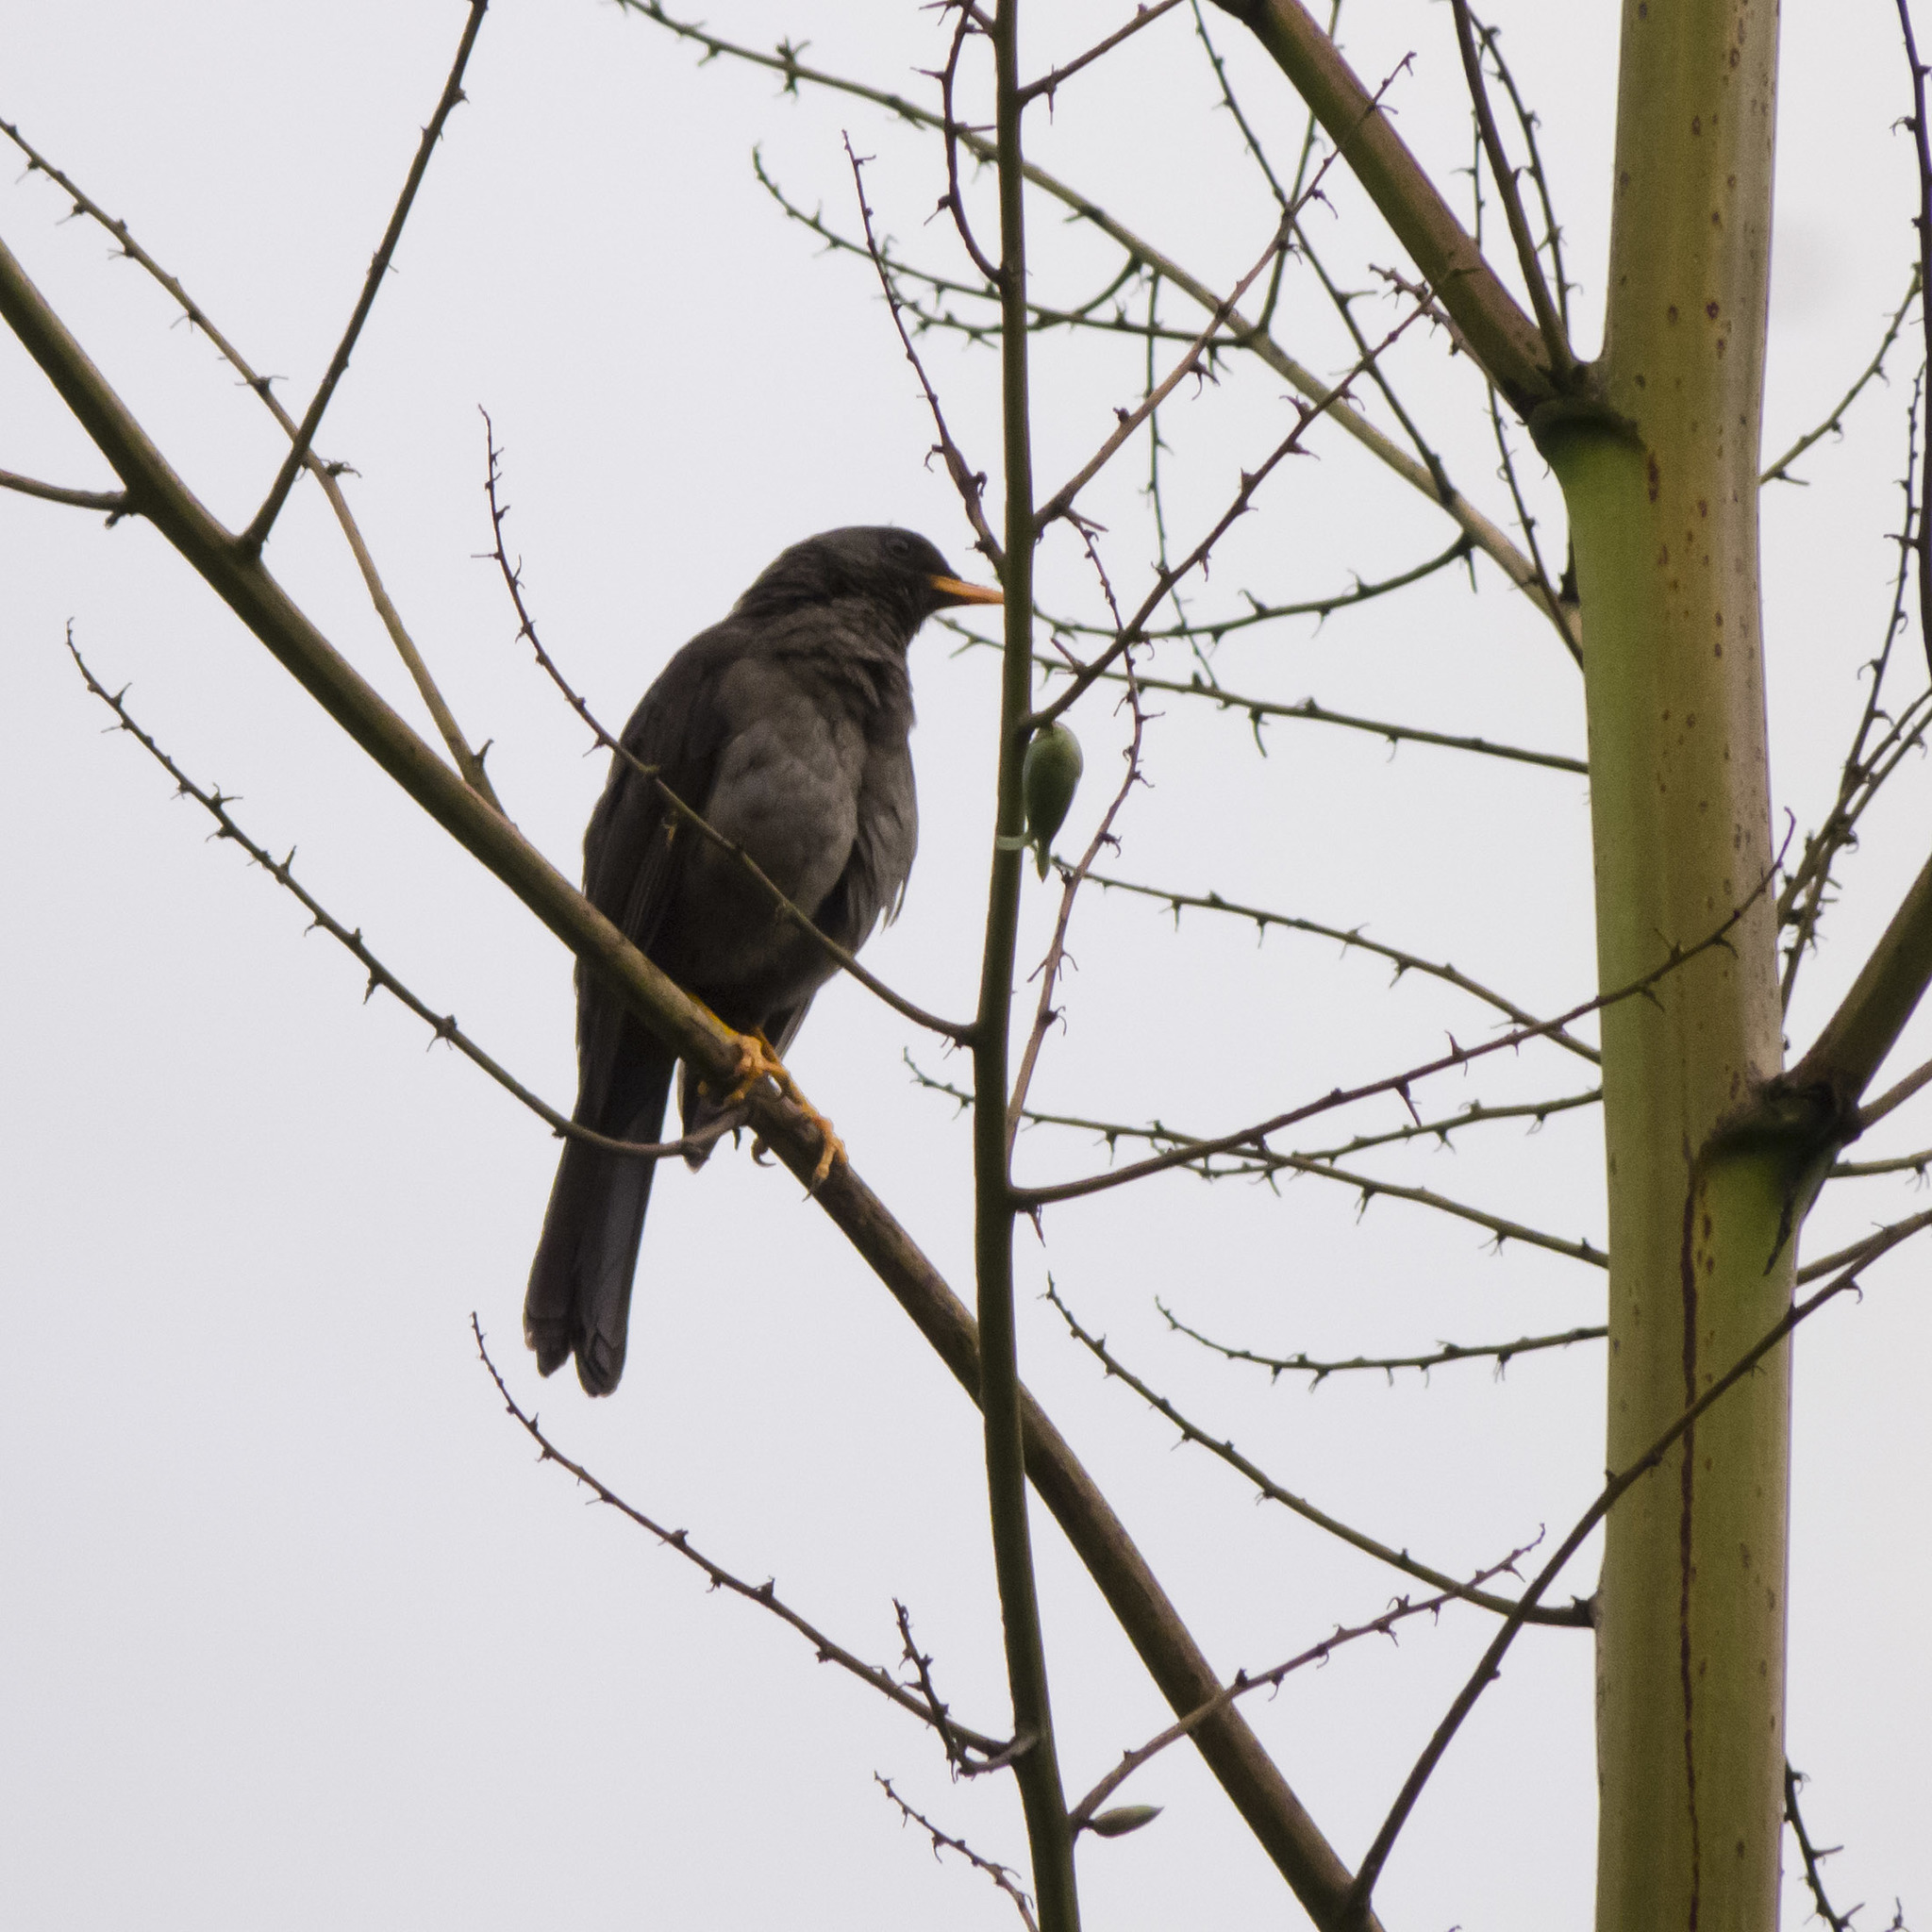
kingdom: Animalia
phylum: Chordata
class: Aves
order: Passeriformes
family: Turdidae
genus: Turdus
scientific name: Turdus fuscater
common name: Great thrush
